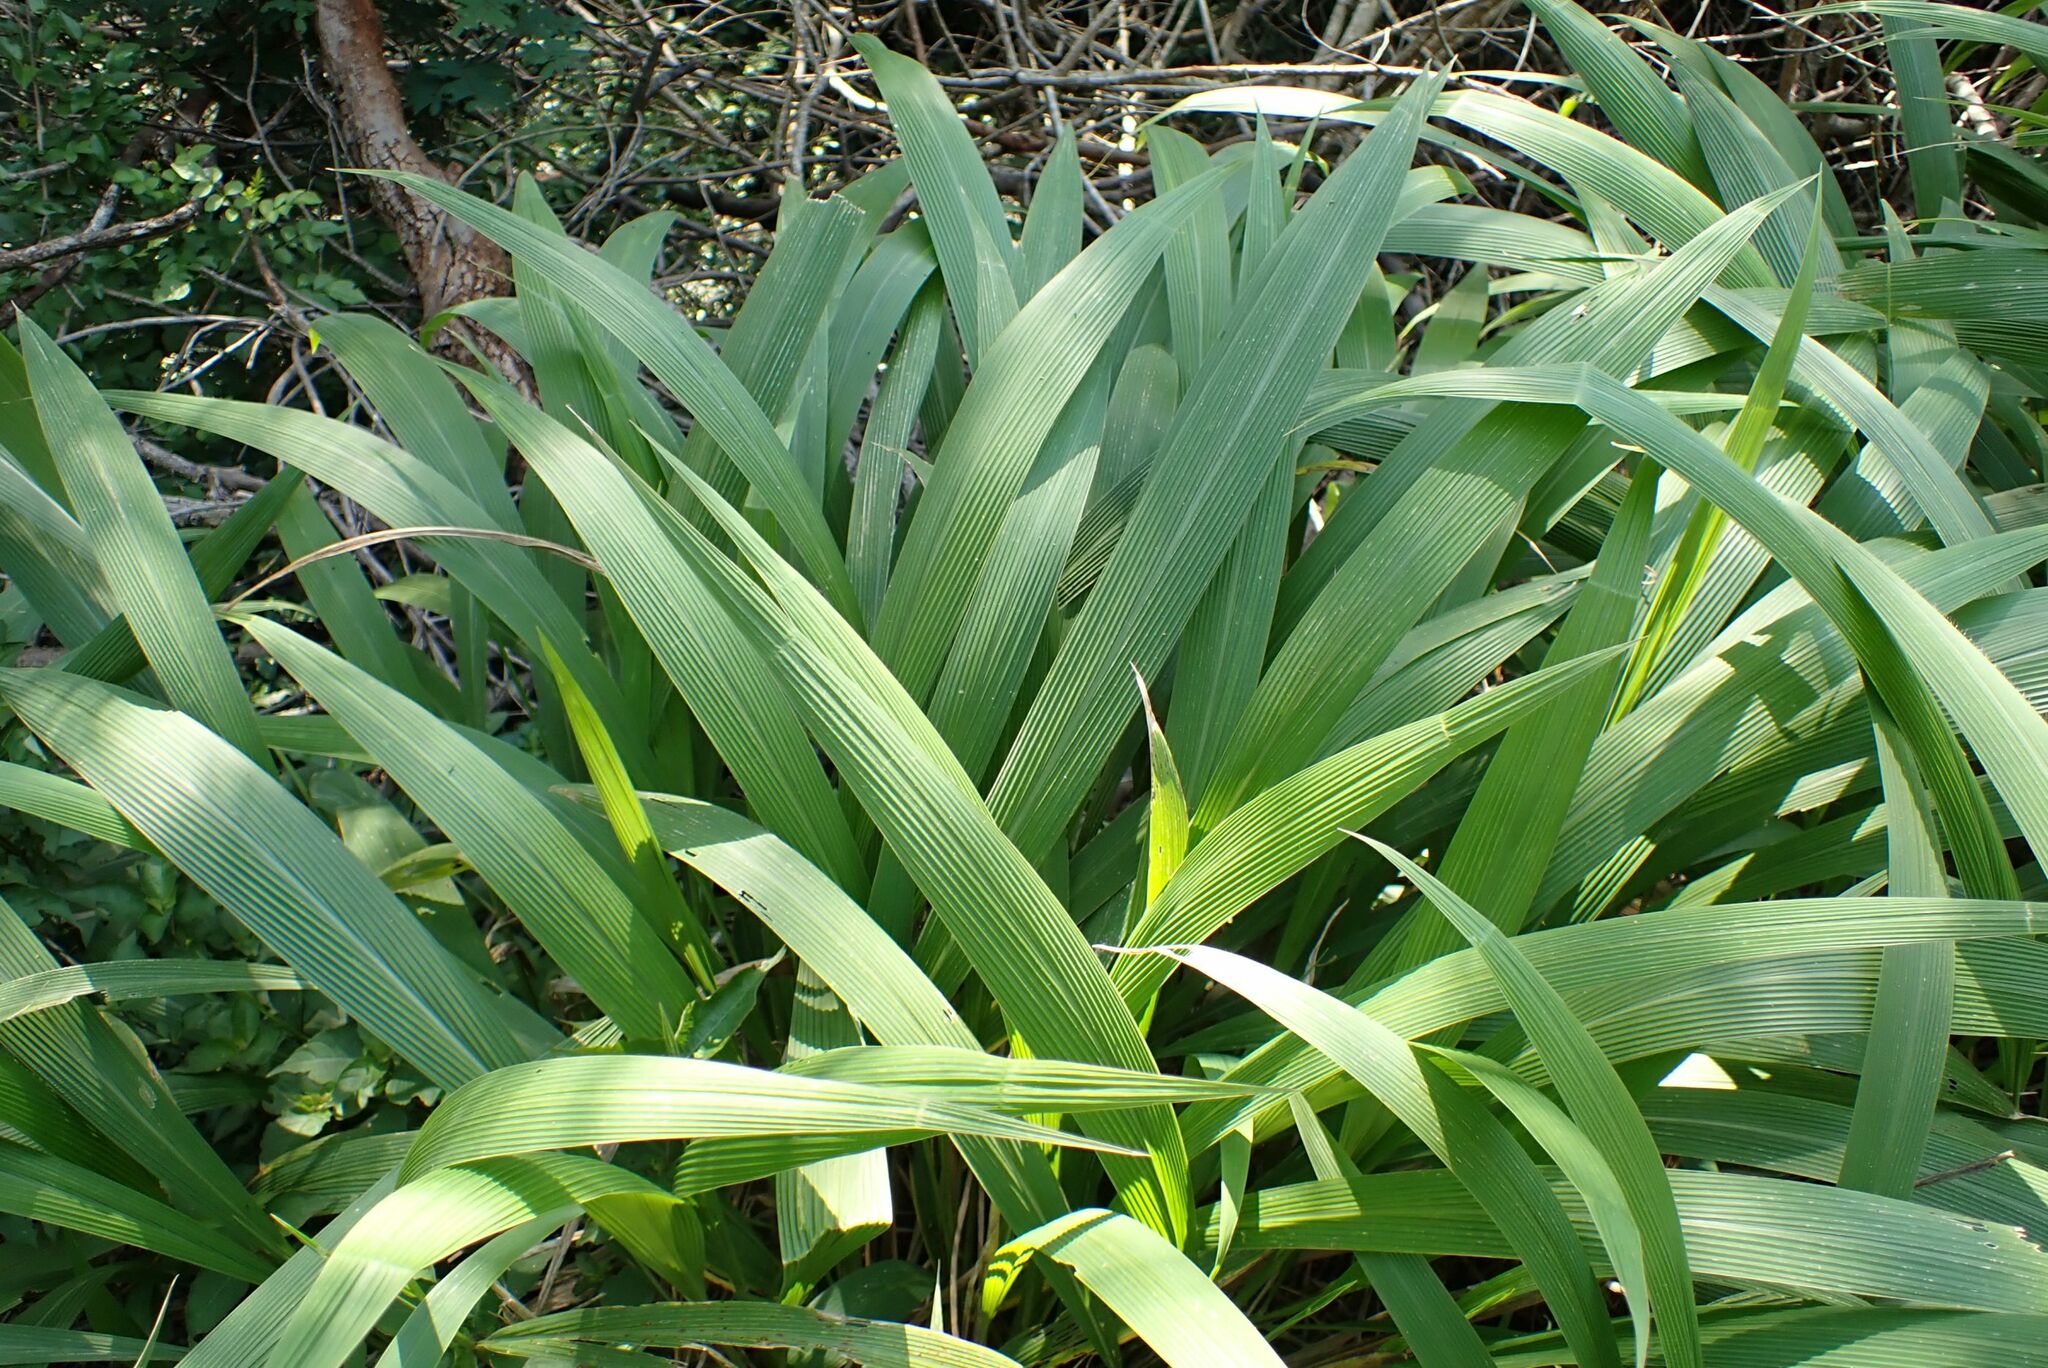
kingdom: Plantae
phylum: Tracheophyta
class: Liliopsida
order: Poales
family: Poaceae
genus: Setaria
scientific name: Setaria megaphylla
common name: Bigleaf bristlegrass
